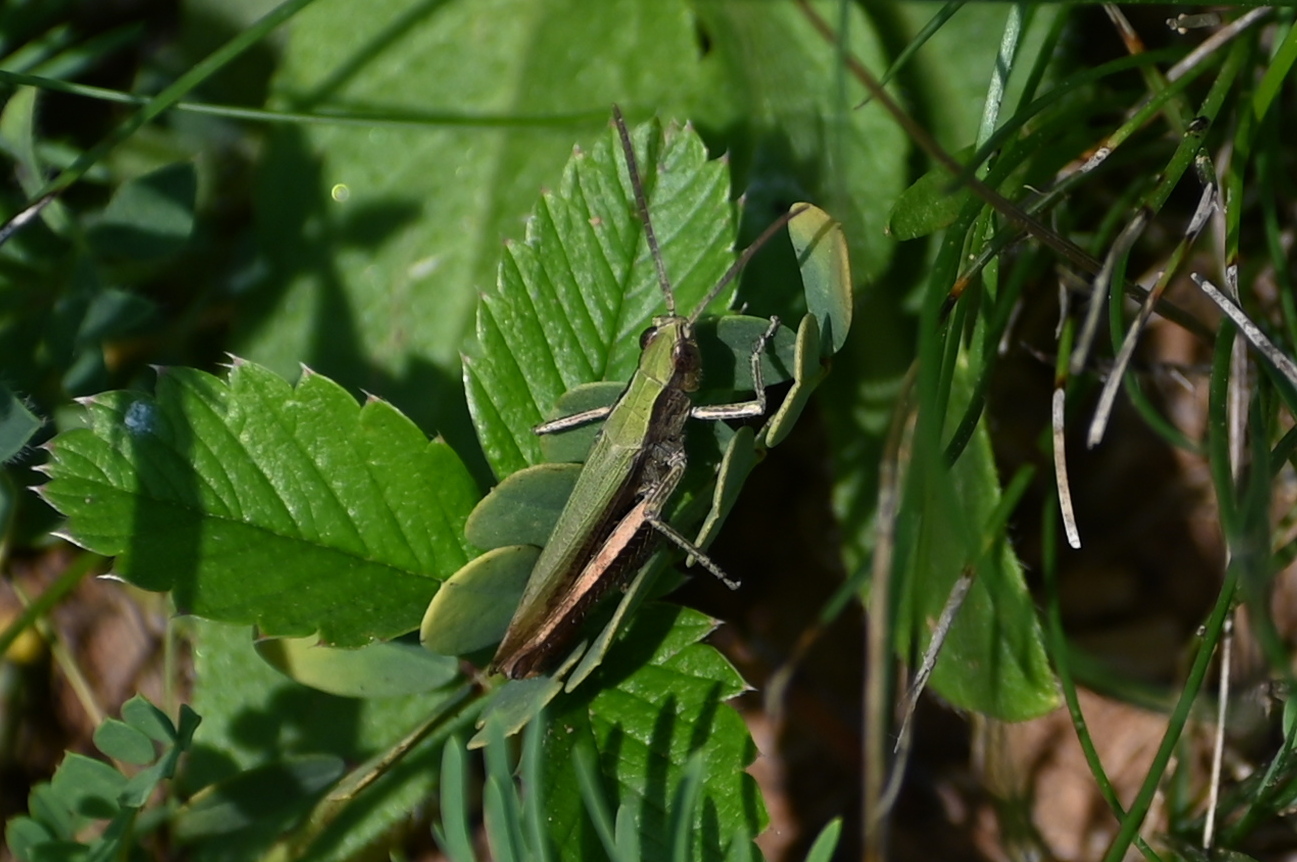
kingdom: Animalia
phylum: Arthropoda
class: Insecta
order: Orthoptera
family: Acrididae
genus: Chorthippus
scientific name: Chorthippus dorsatus
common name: Steppe grasshopper
